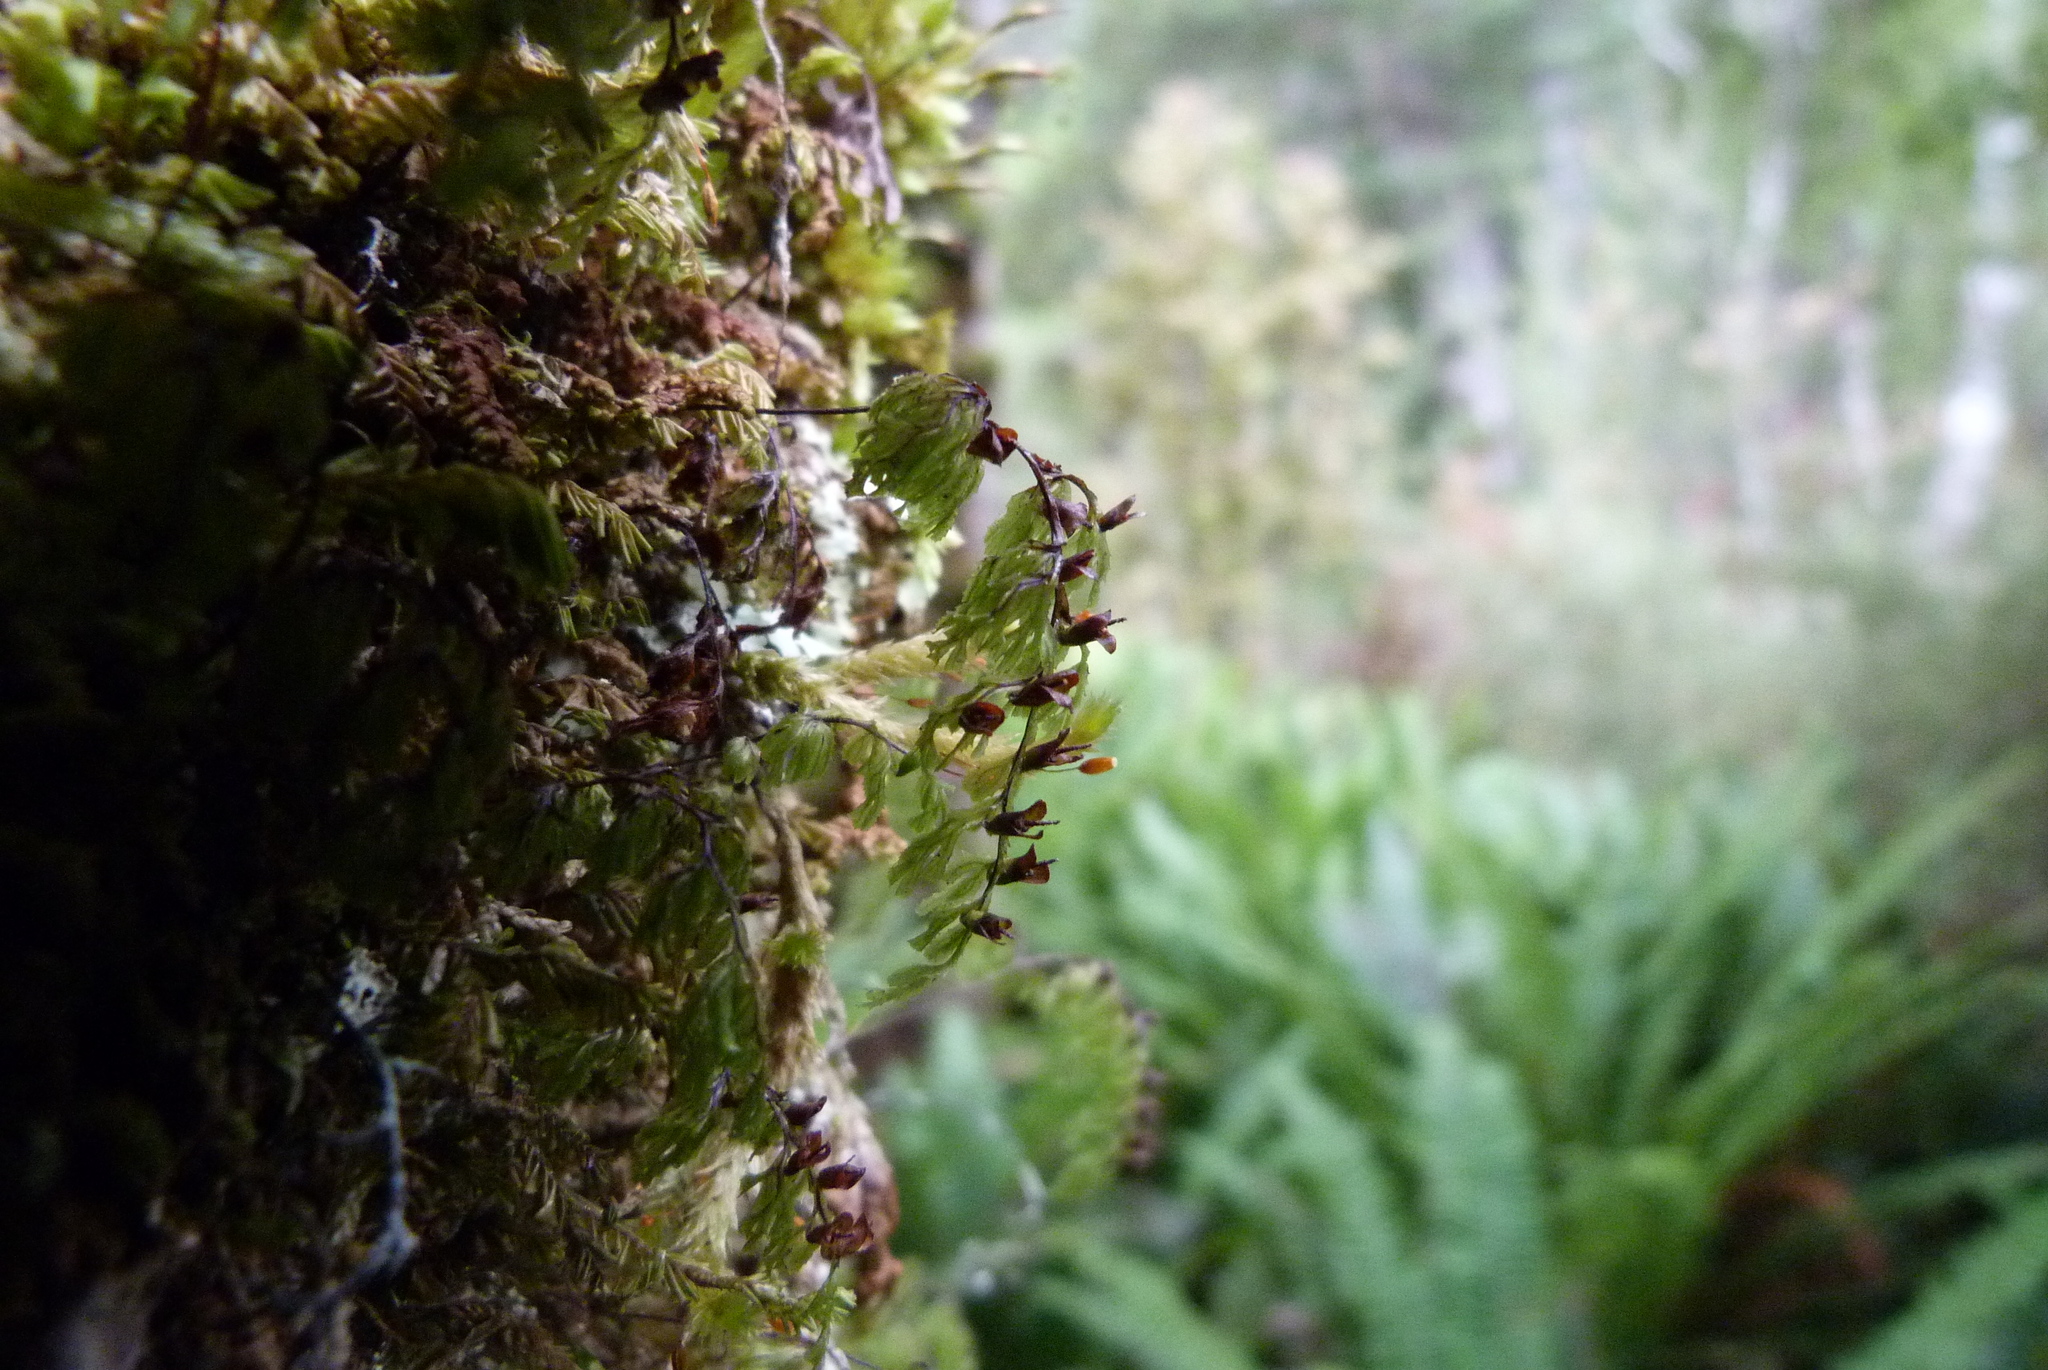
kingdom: Plantae
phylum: Tracheophyta
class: Polypodiopsida
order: Hymenophyllales
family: Hymenophyllaceae
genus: Hymenophyllum
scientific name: Hymenophyllum multifidum
